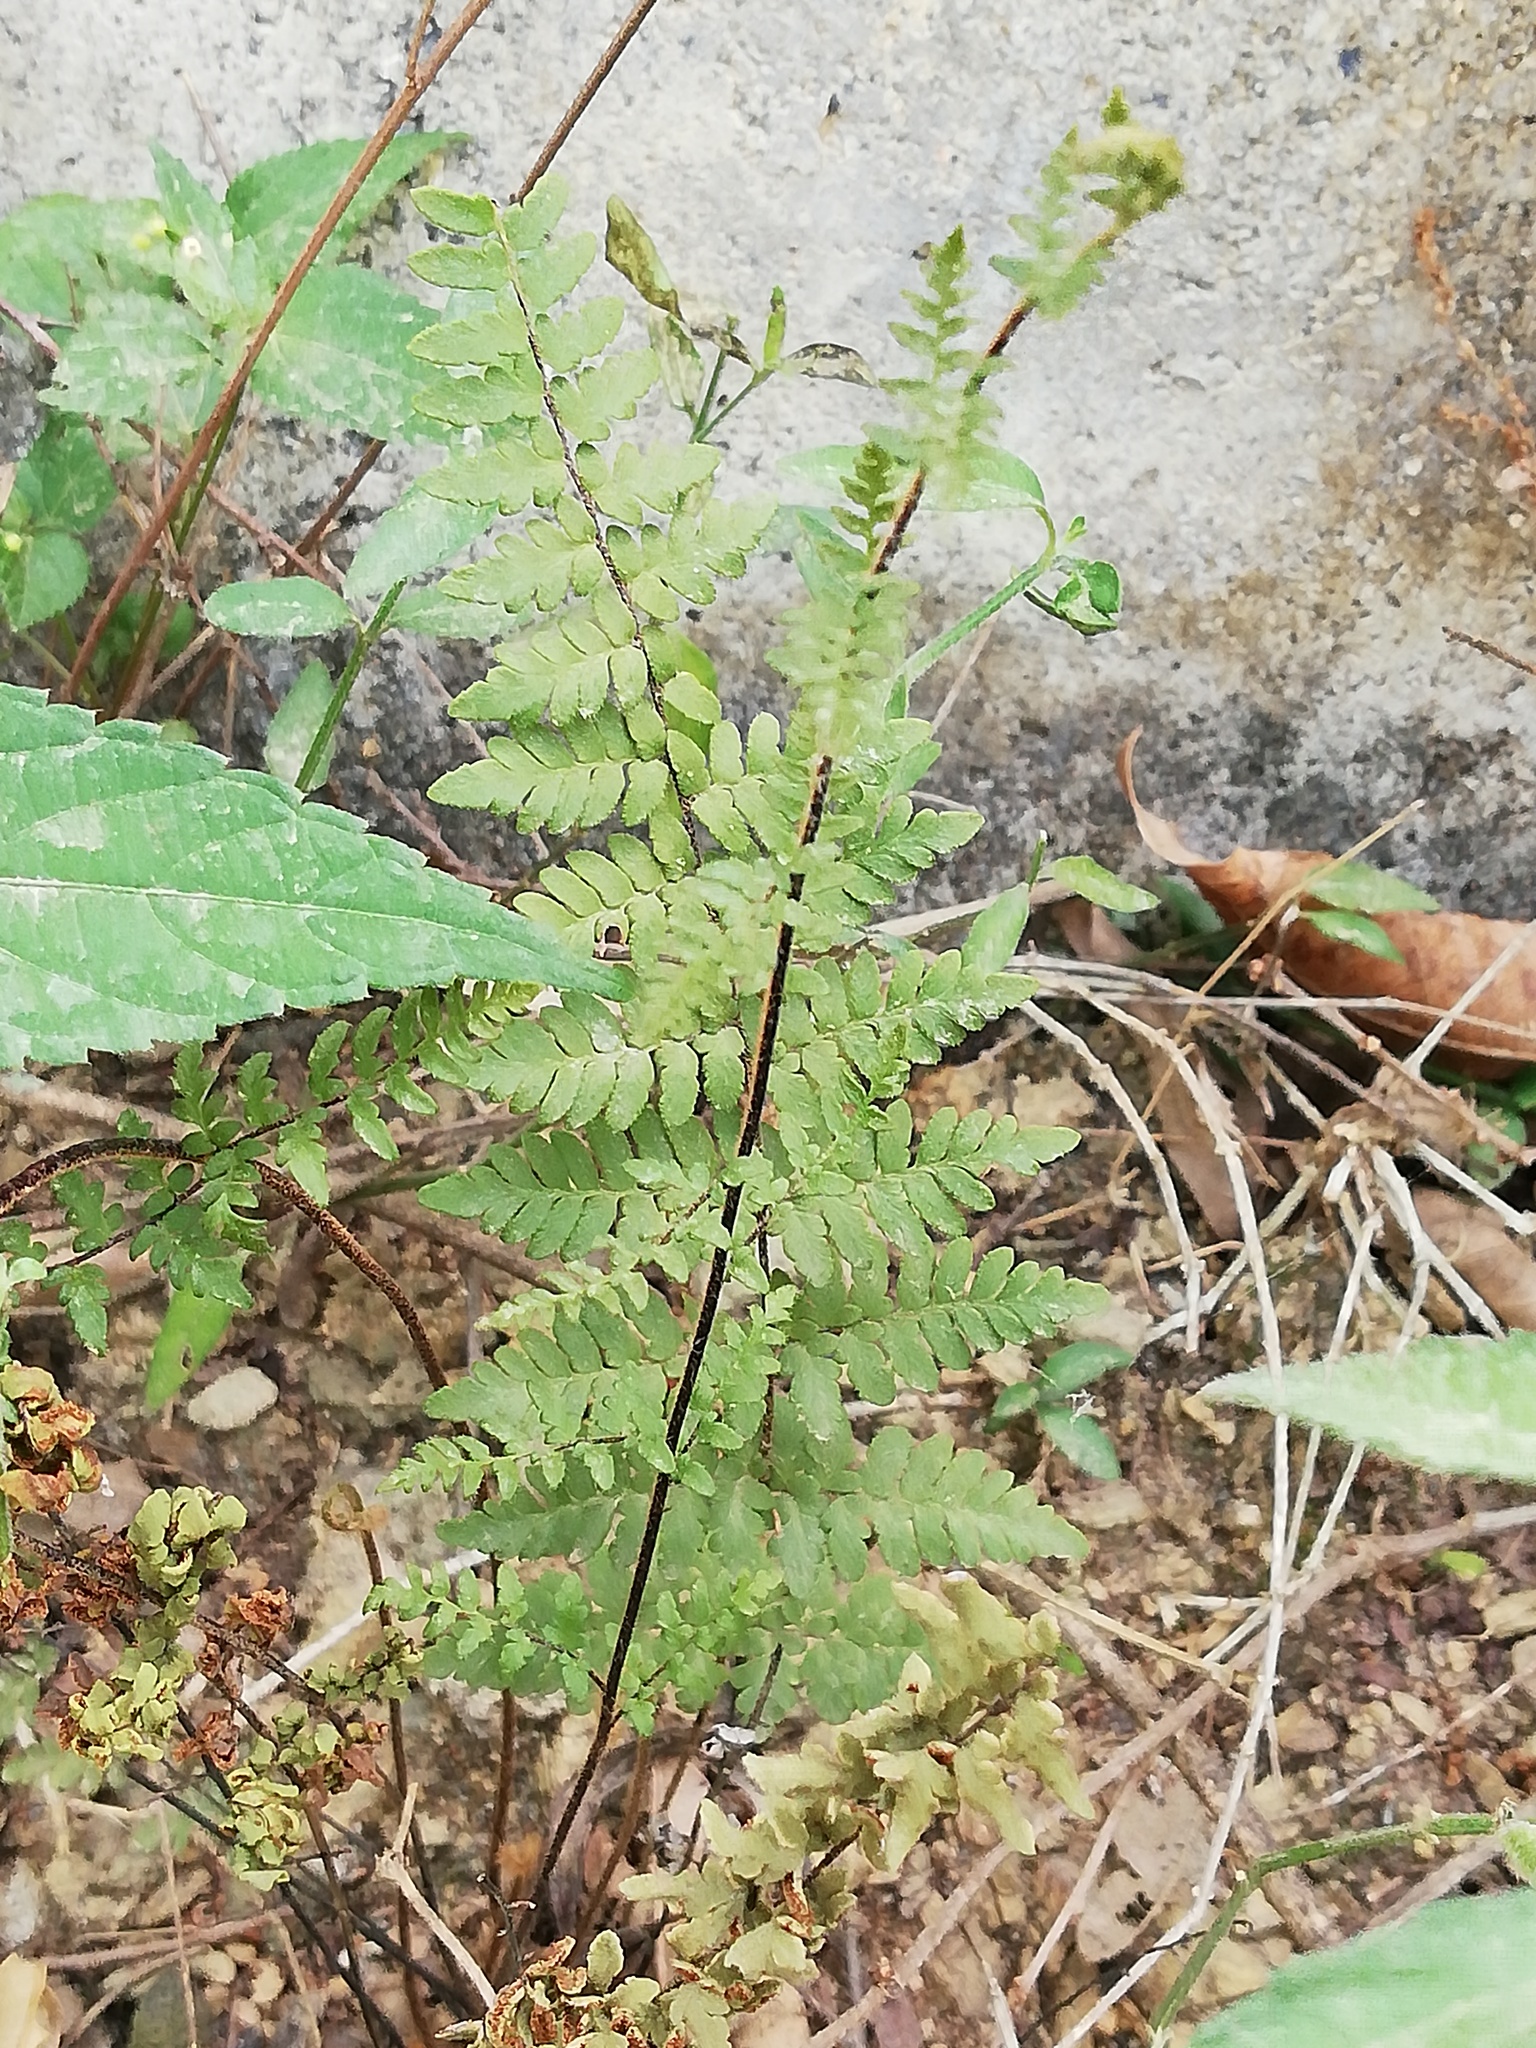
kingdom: Plantae
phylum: Tracheophyta
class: Polypodiopsida
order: Polypodiales
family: Pteridaceae
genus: Myriopteris
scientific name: Myriopteris alabamensis
